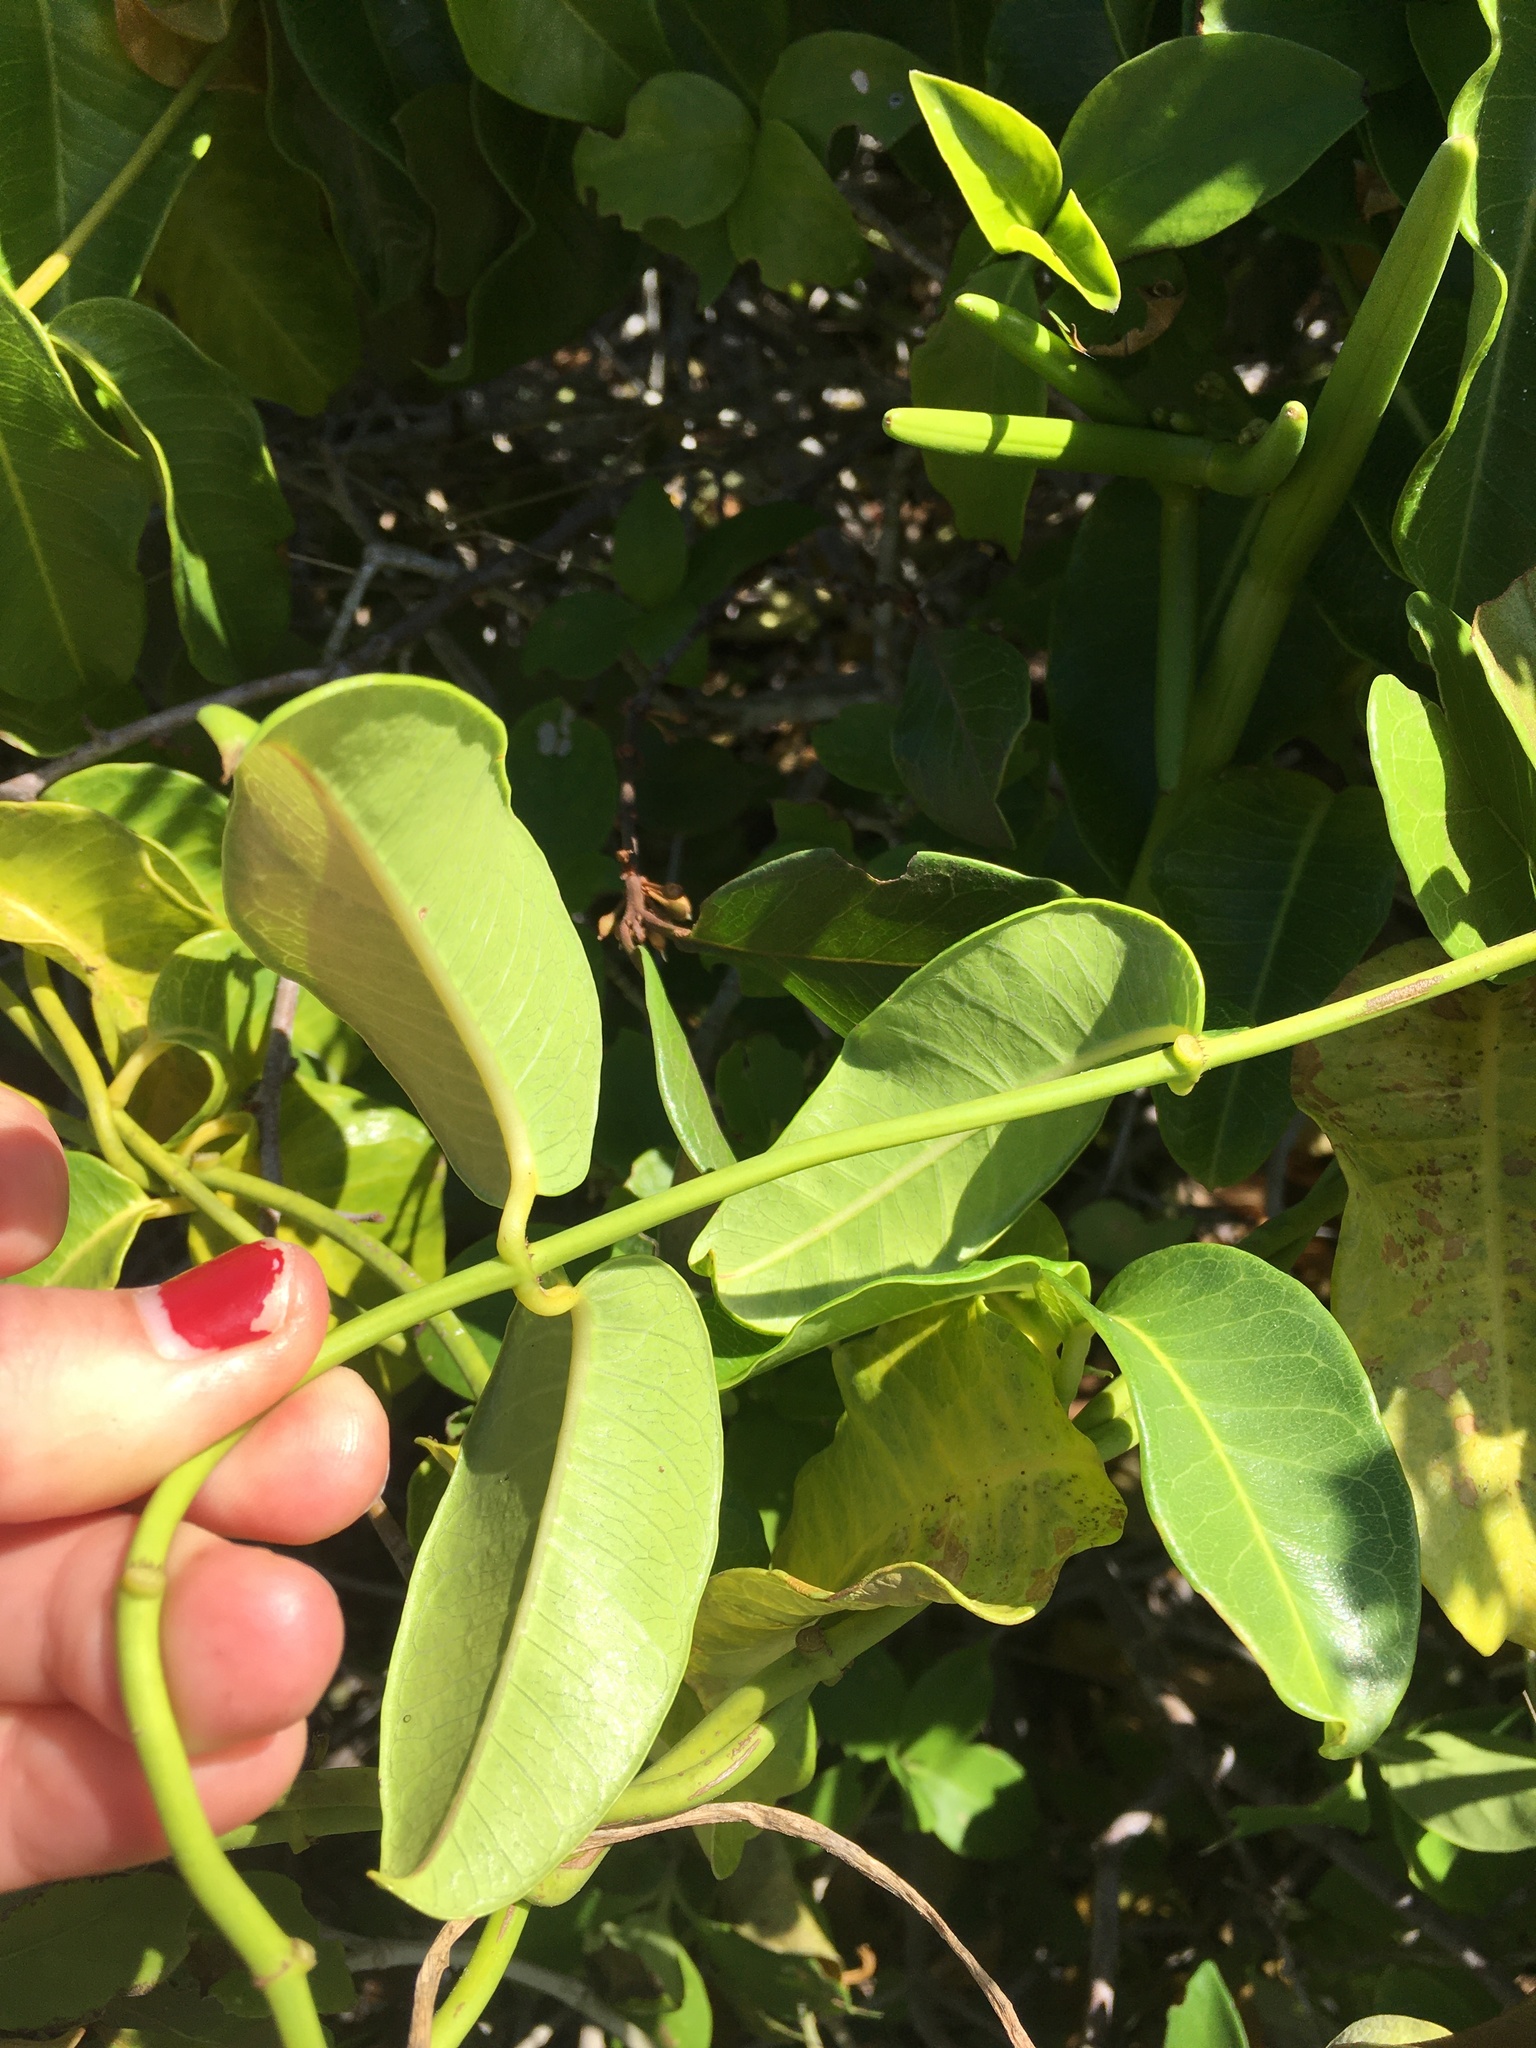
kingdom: Plantae
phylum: Tracheophyta
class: Magnoliopsida
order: Gentianales
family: Apocynaceae
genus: Echites
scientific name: Echites umbellatus
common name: Devil's potato
